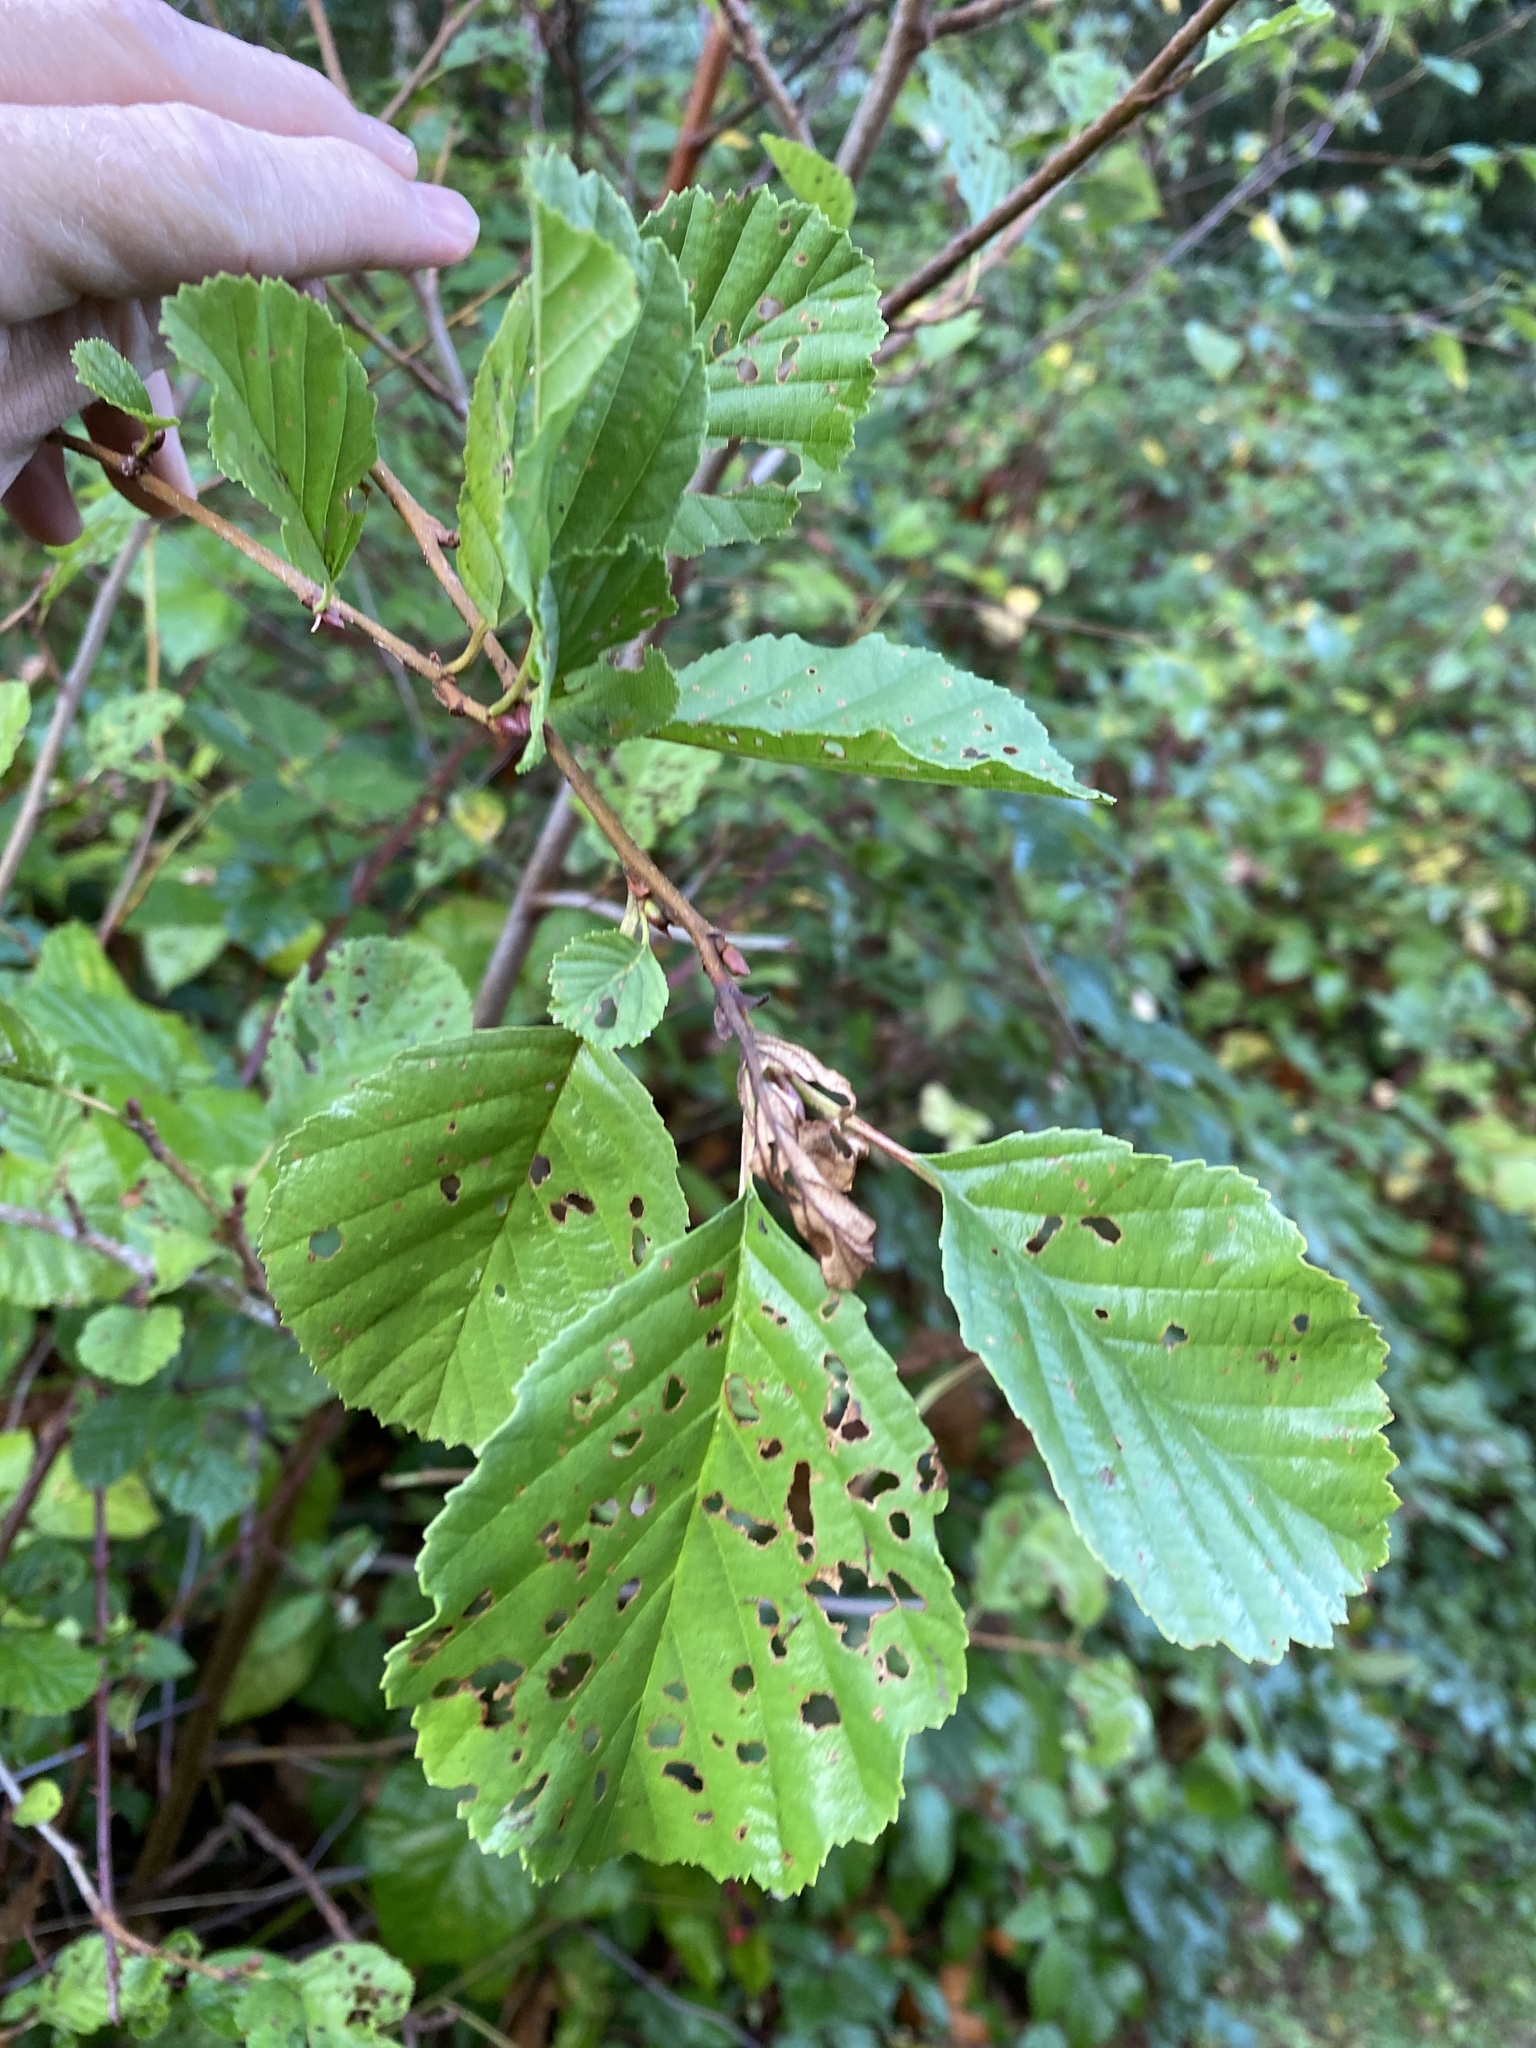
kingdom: Plantae
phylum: Tracheophyta
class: Magnoliopsida
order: Fagales
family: Betulaceae
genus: Alnus
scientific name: Alnus glutinosa
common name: Black alder
